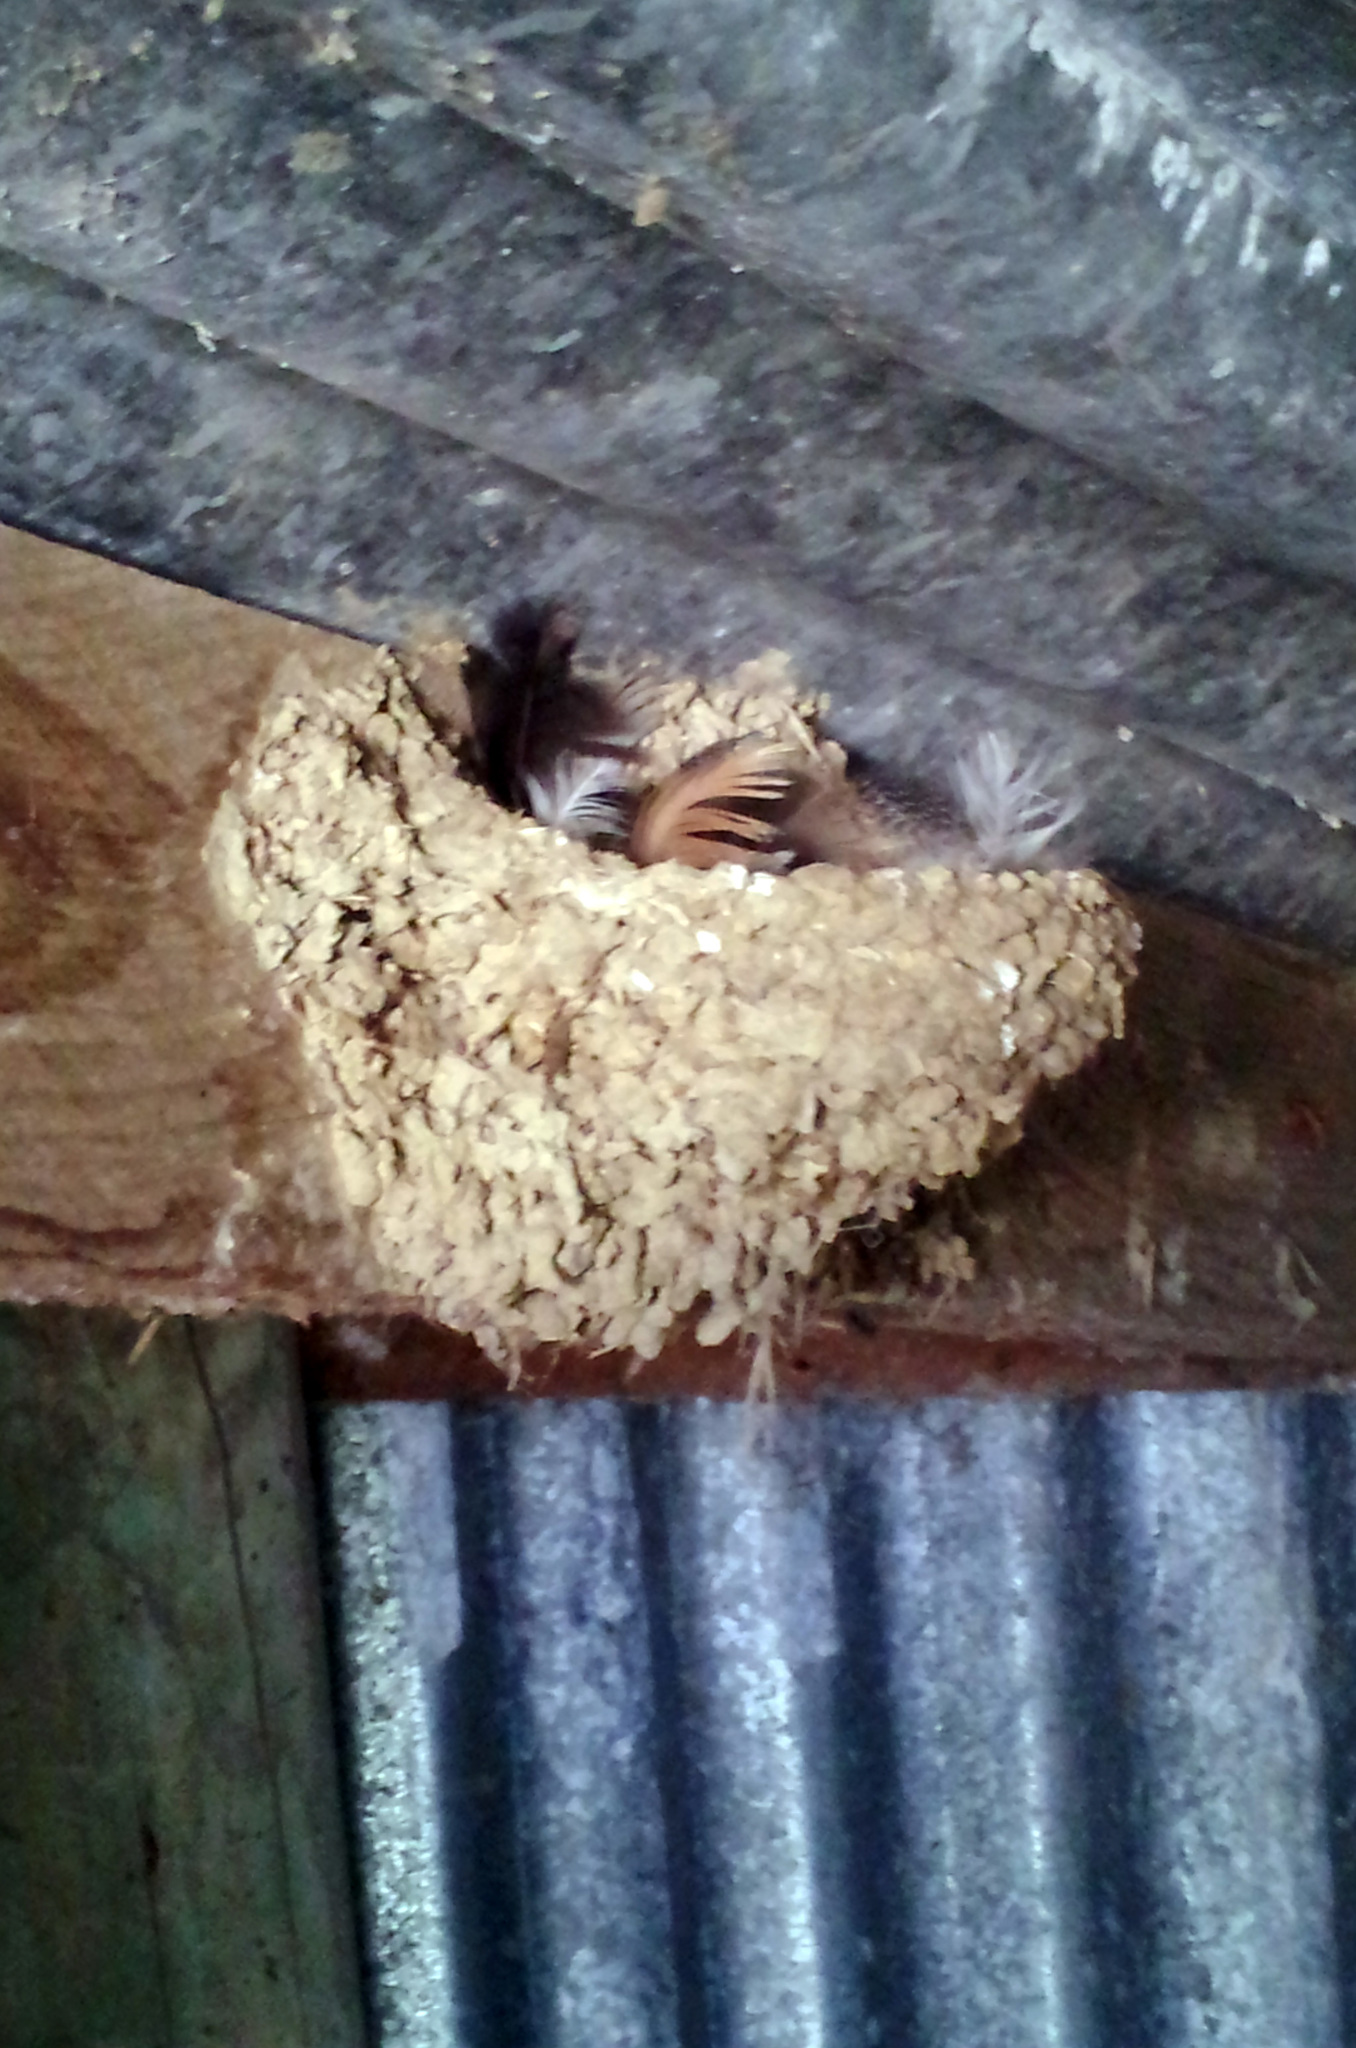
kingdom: Animalia
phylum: Chordata
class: Aves
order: Passeriformes
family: Hirundinidae
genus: Hirundo
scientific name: Hirundo neoxena
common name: Welcome swallow
